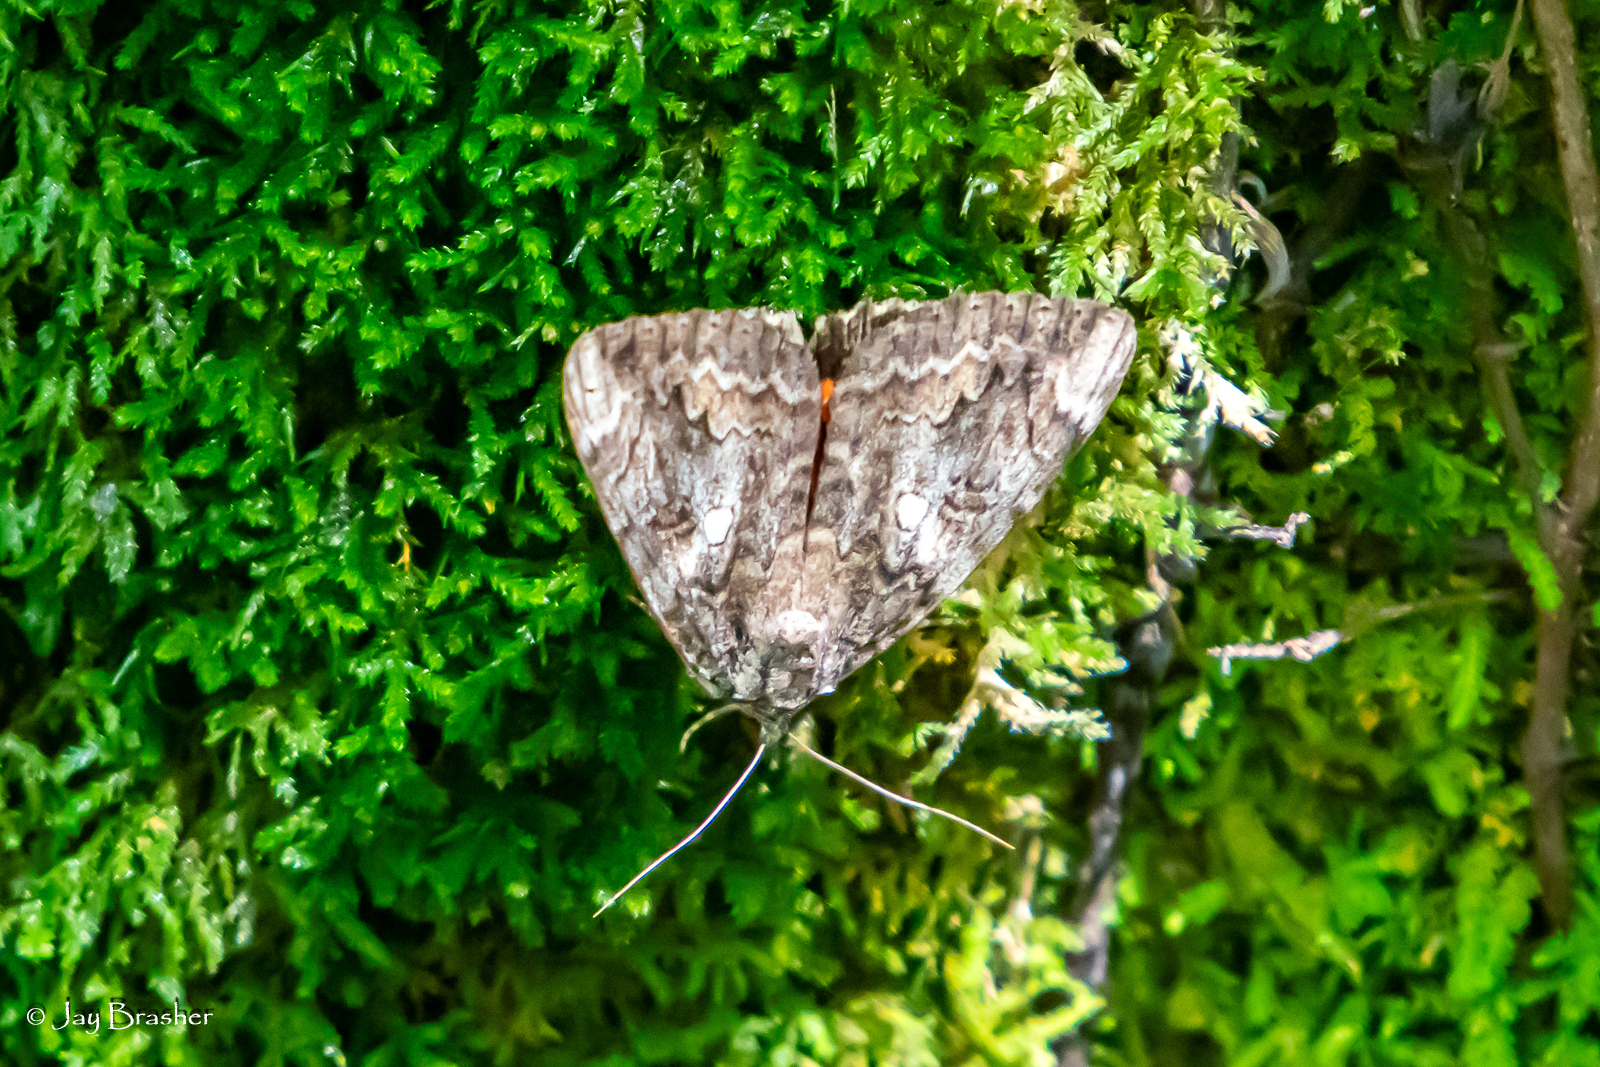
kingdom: Animalia
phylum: Arthropoda
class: Insecta
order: Lepidoptera
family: Erebidae
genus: Catocala
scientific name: Catocala palaeogama
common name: Oldwife underwing
